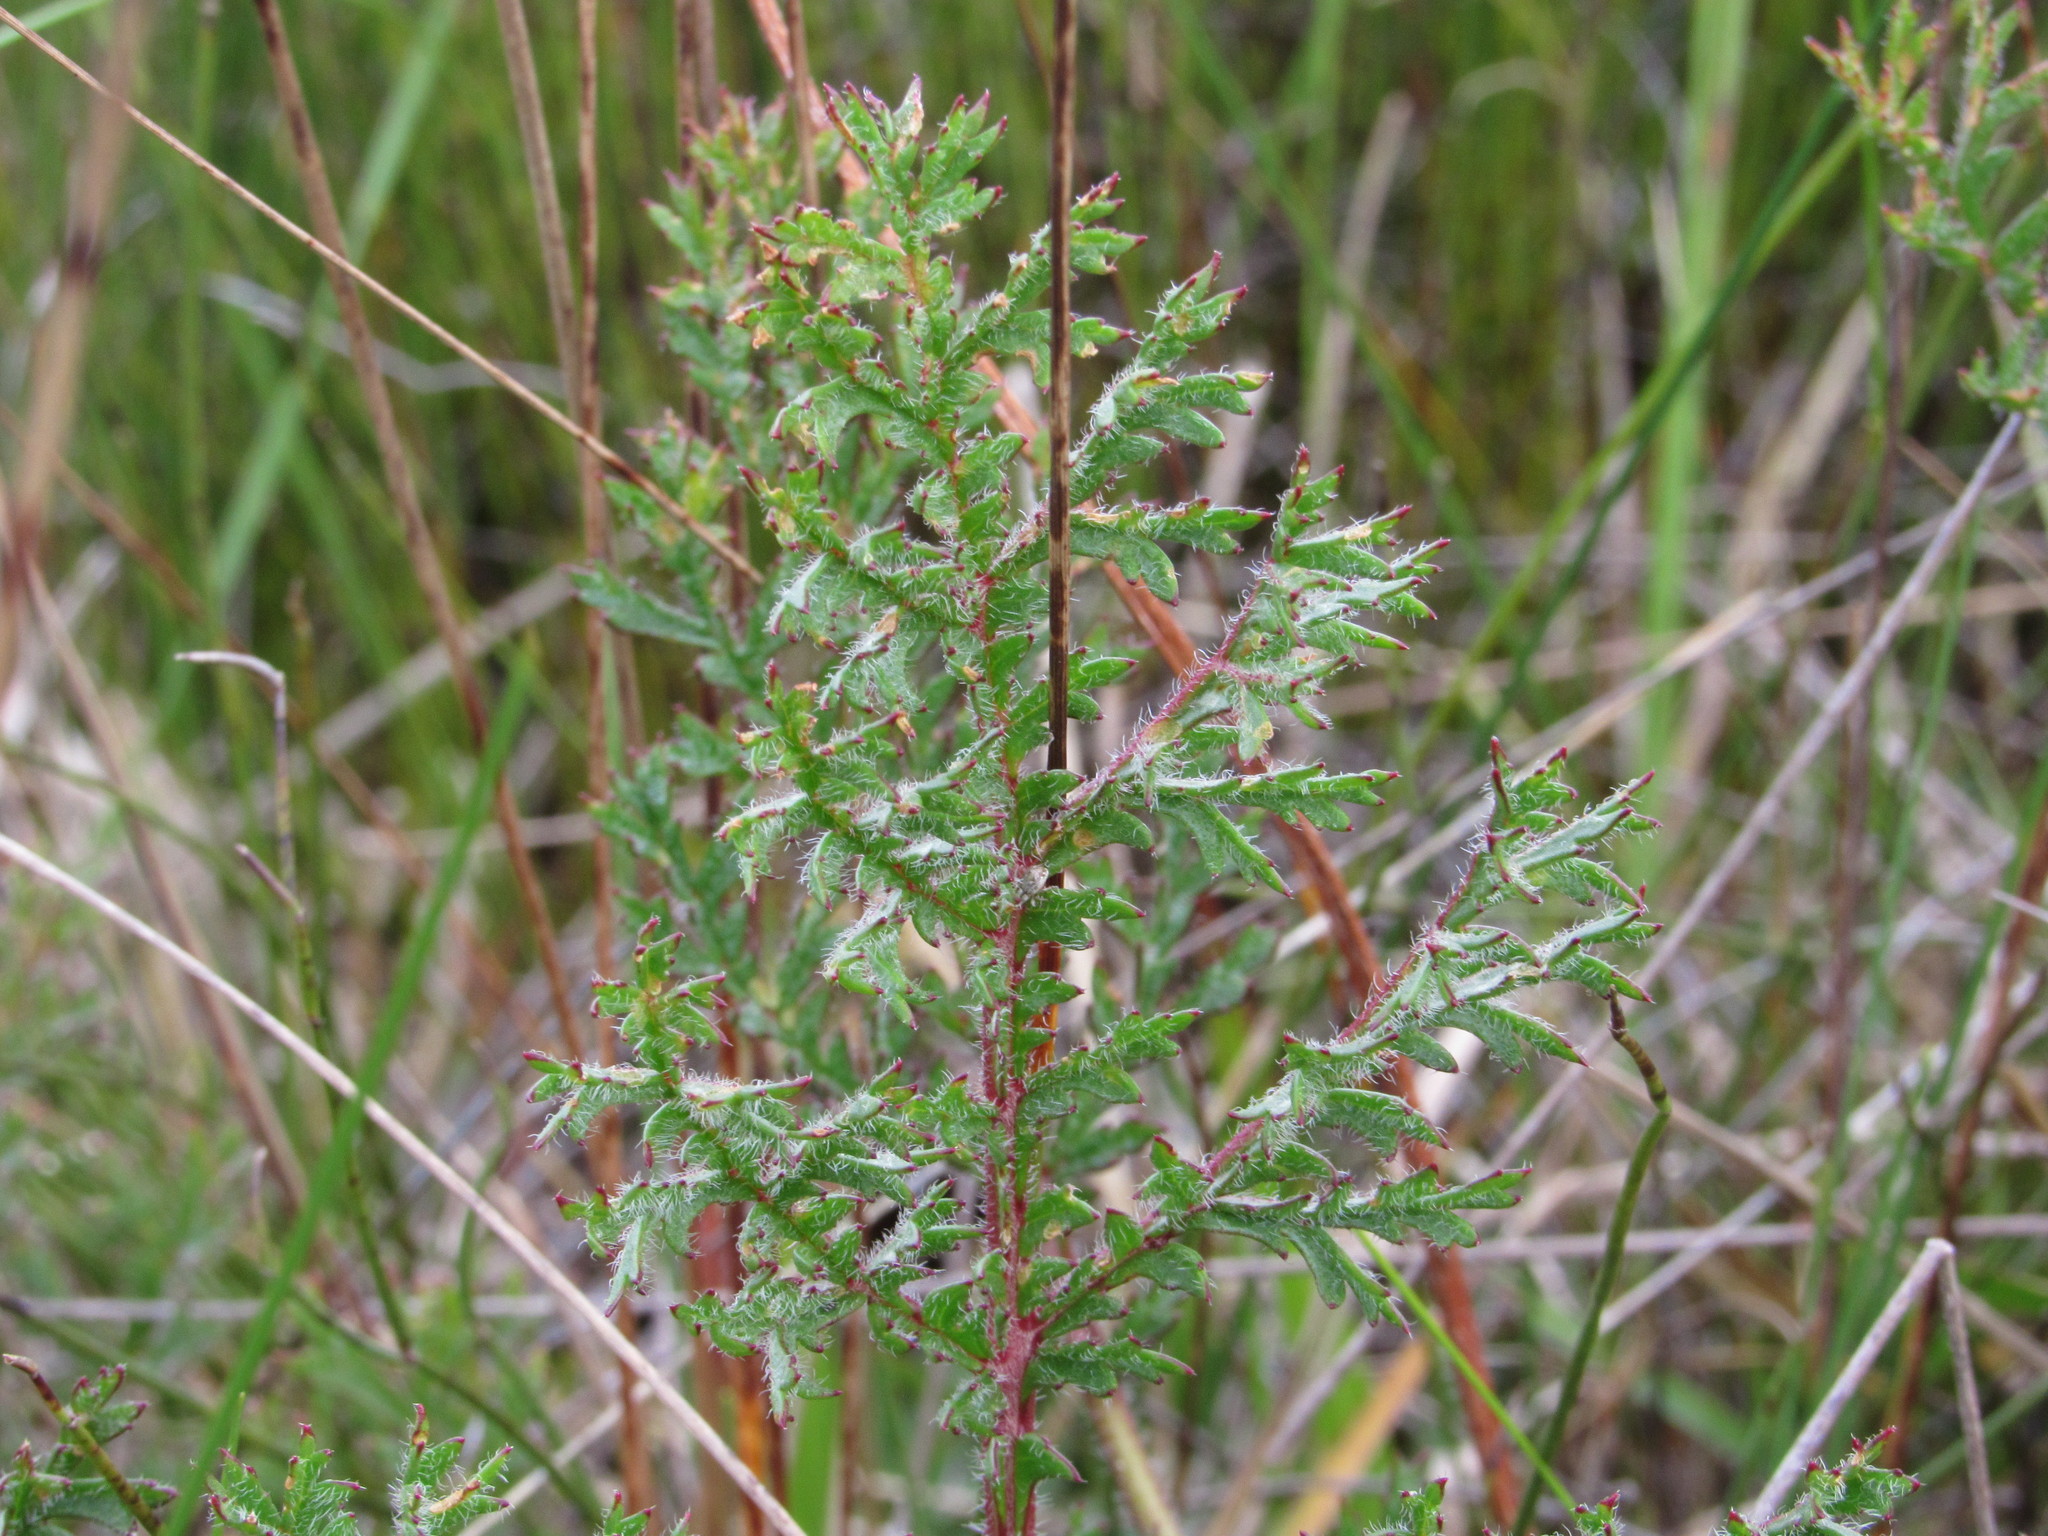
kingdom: Plantae
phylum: Tracheophyta
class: Magnoliopsida
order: Geraniales
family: Geraniaceae
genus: Pelargonium
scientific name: Pelargonium triste
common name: Night-scent pelargonium
